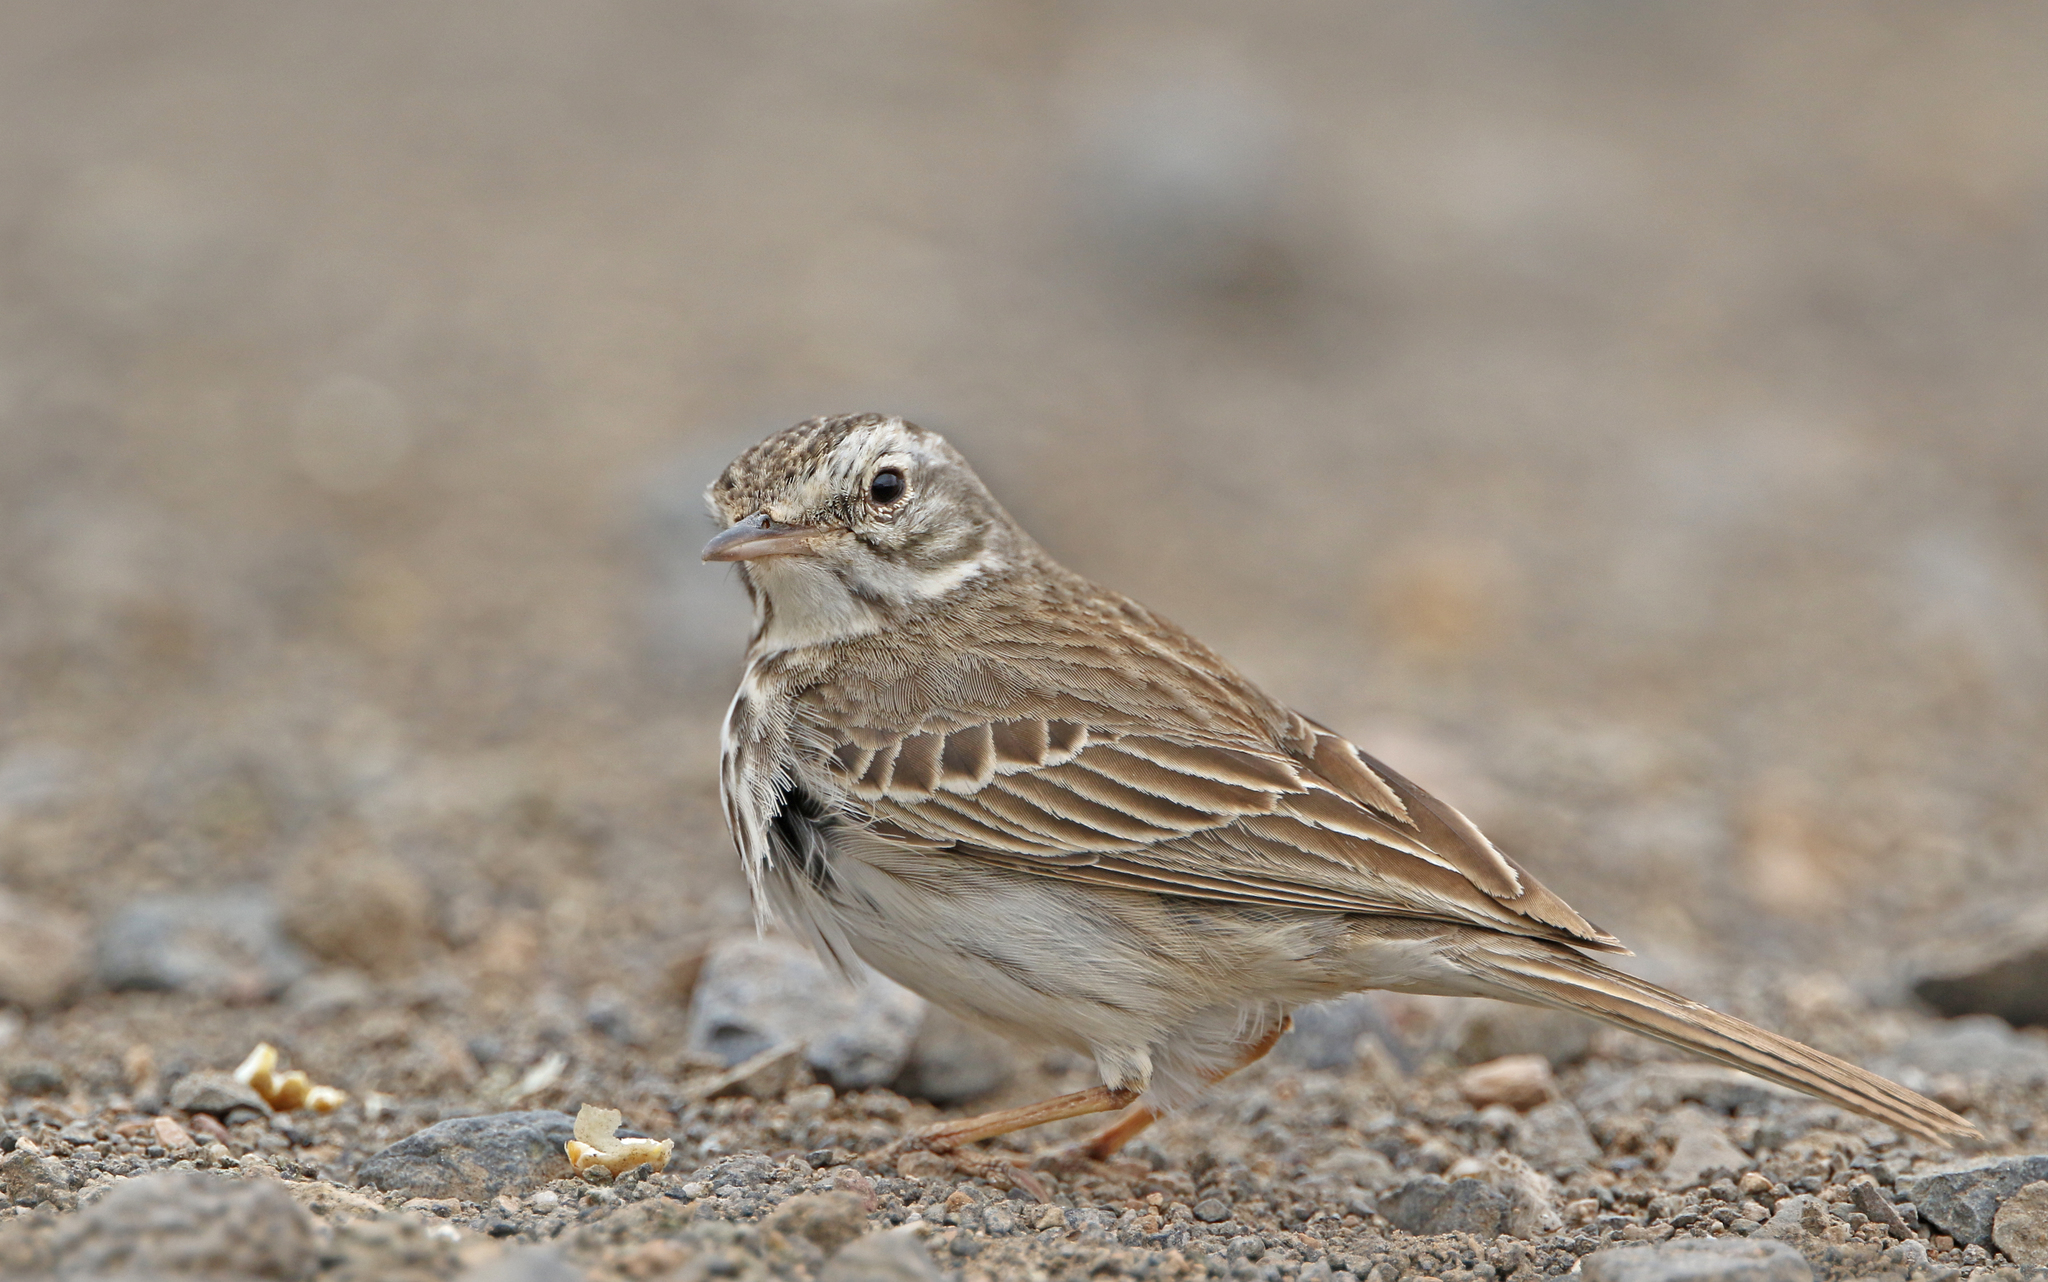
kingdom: Animalia
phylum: Chordata
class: Aves
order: Passeriformes
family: Motacillidae
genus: Anthus
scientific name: Anthus berthelotii
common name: Berthelot's pipit
